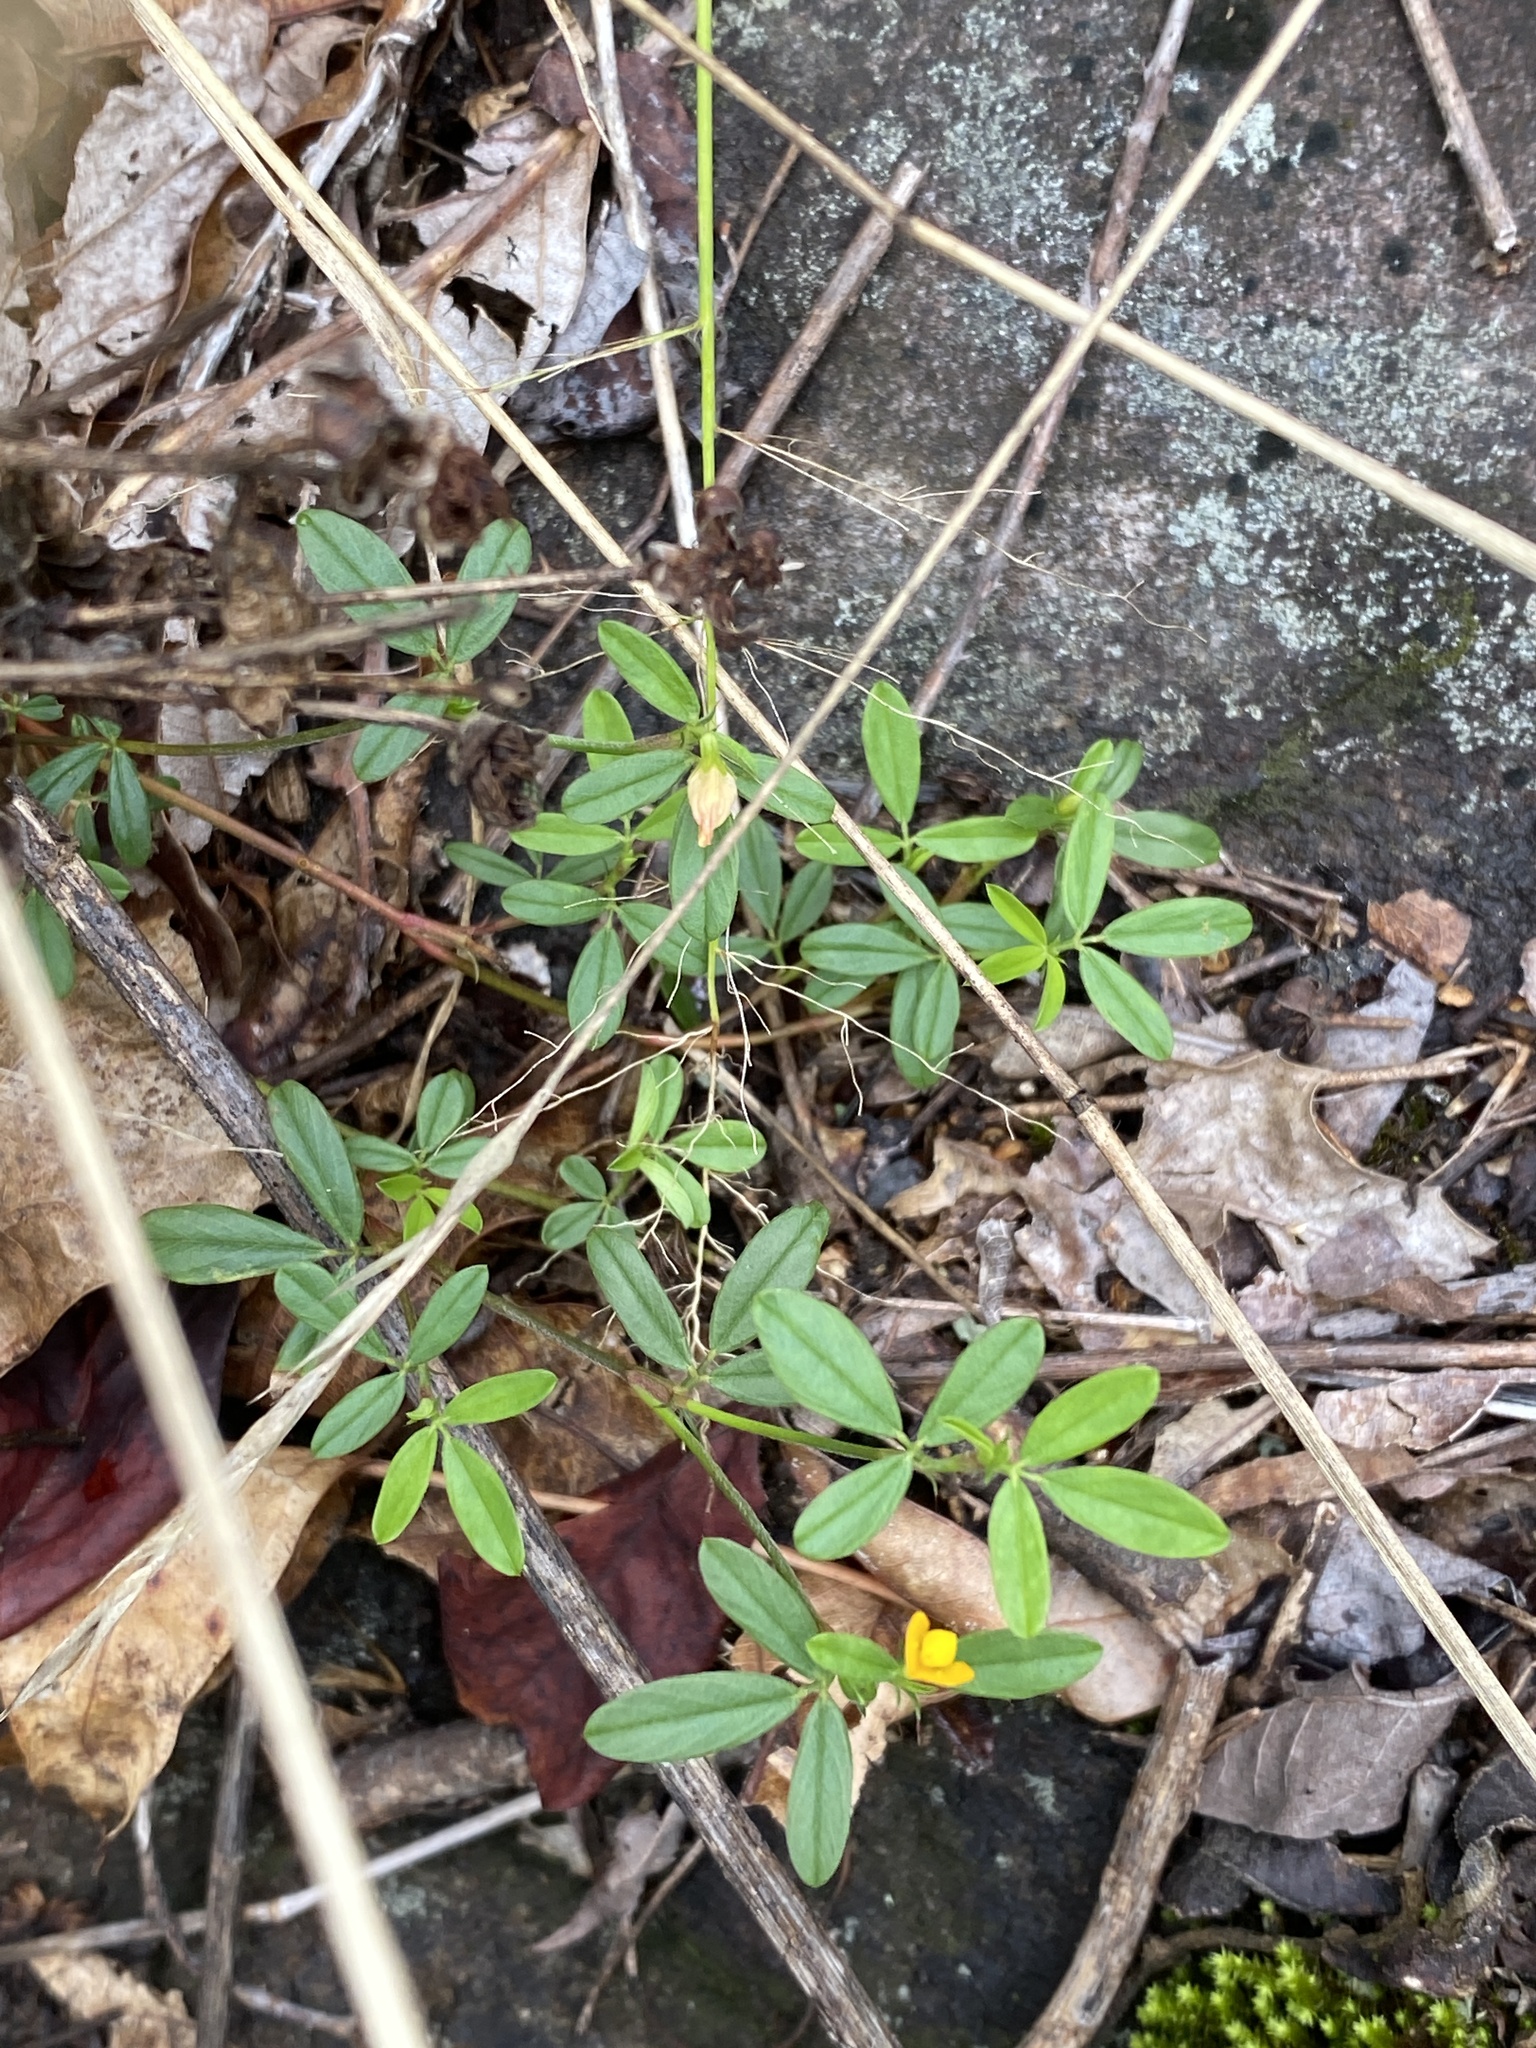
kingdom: Plantae
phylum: Tracheophyta
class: Magnoliopsida
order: Fabales
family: Fabaceae
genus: Stylosanthes
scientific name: Stylosanthes biflora
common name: Two-flower pencil-flower
